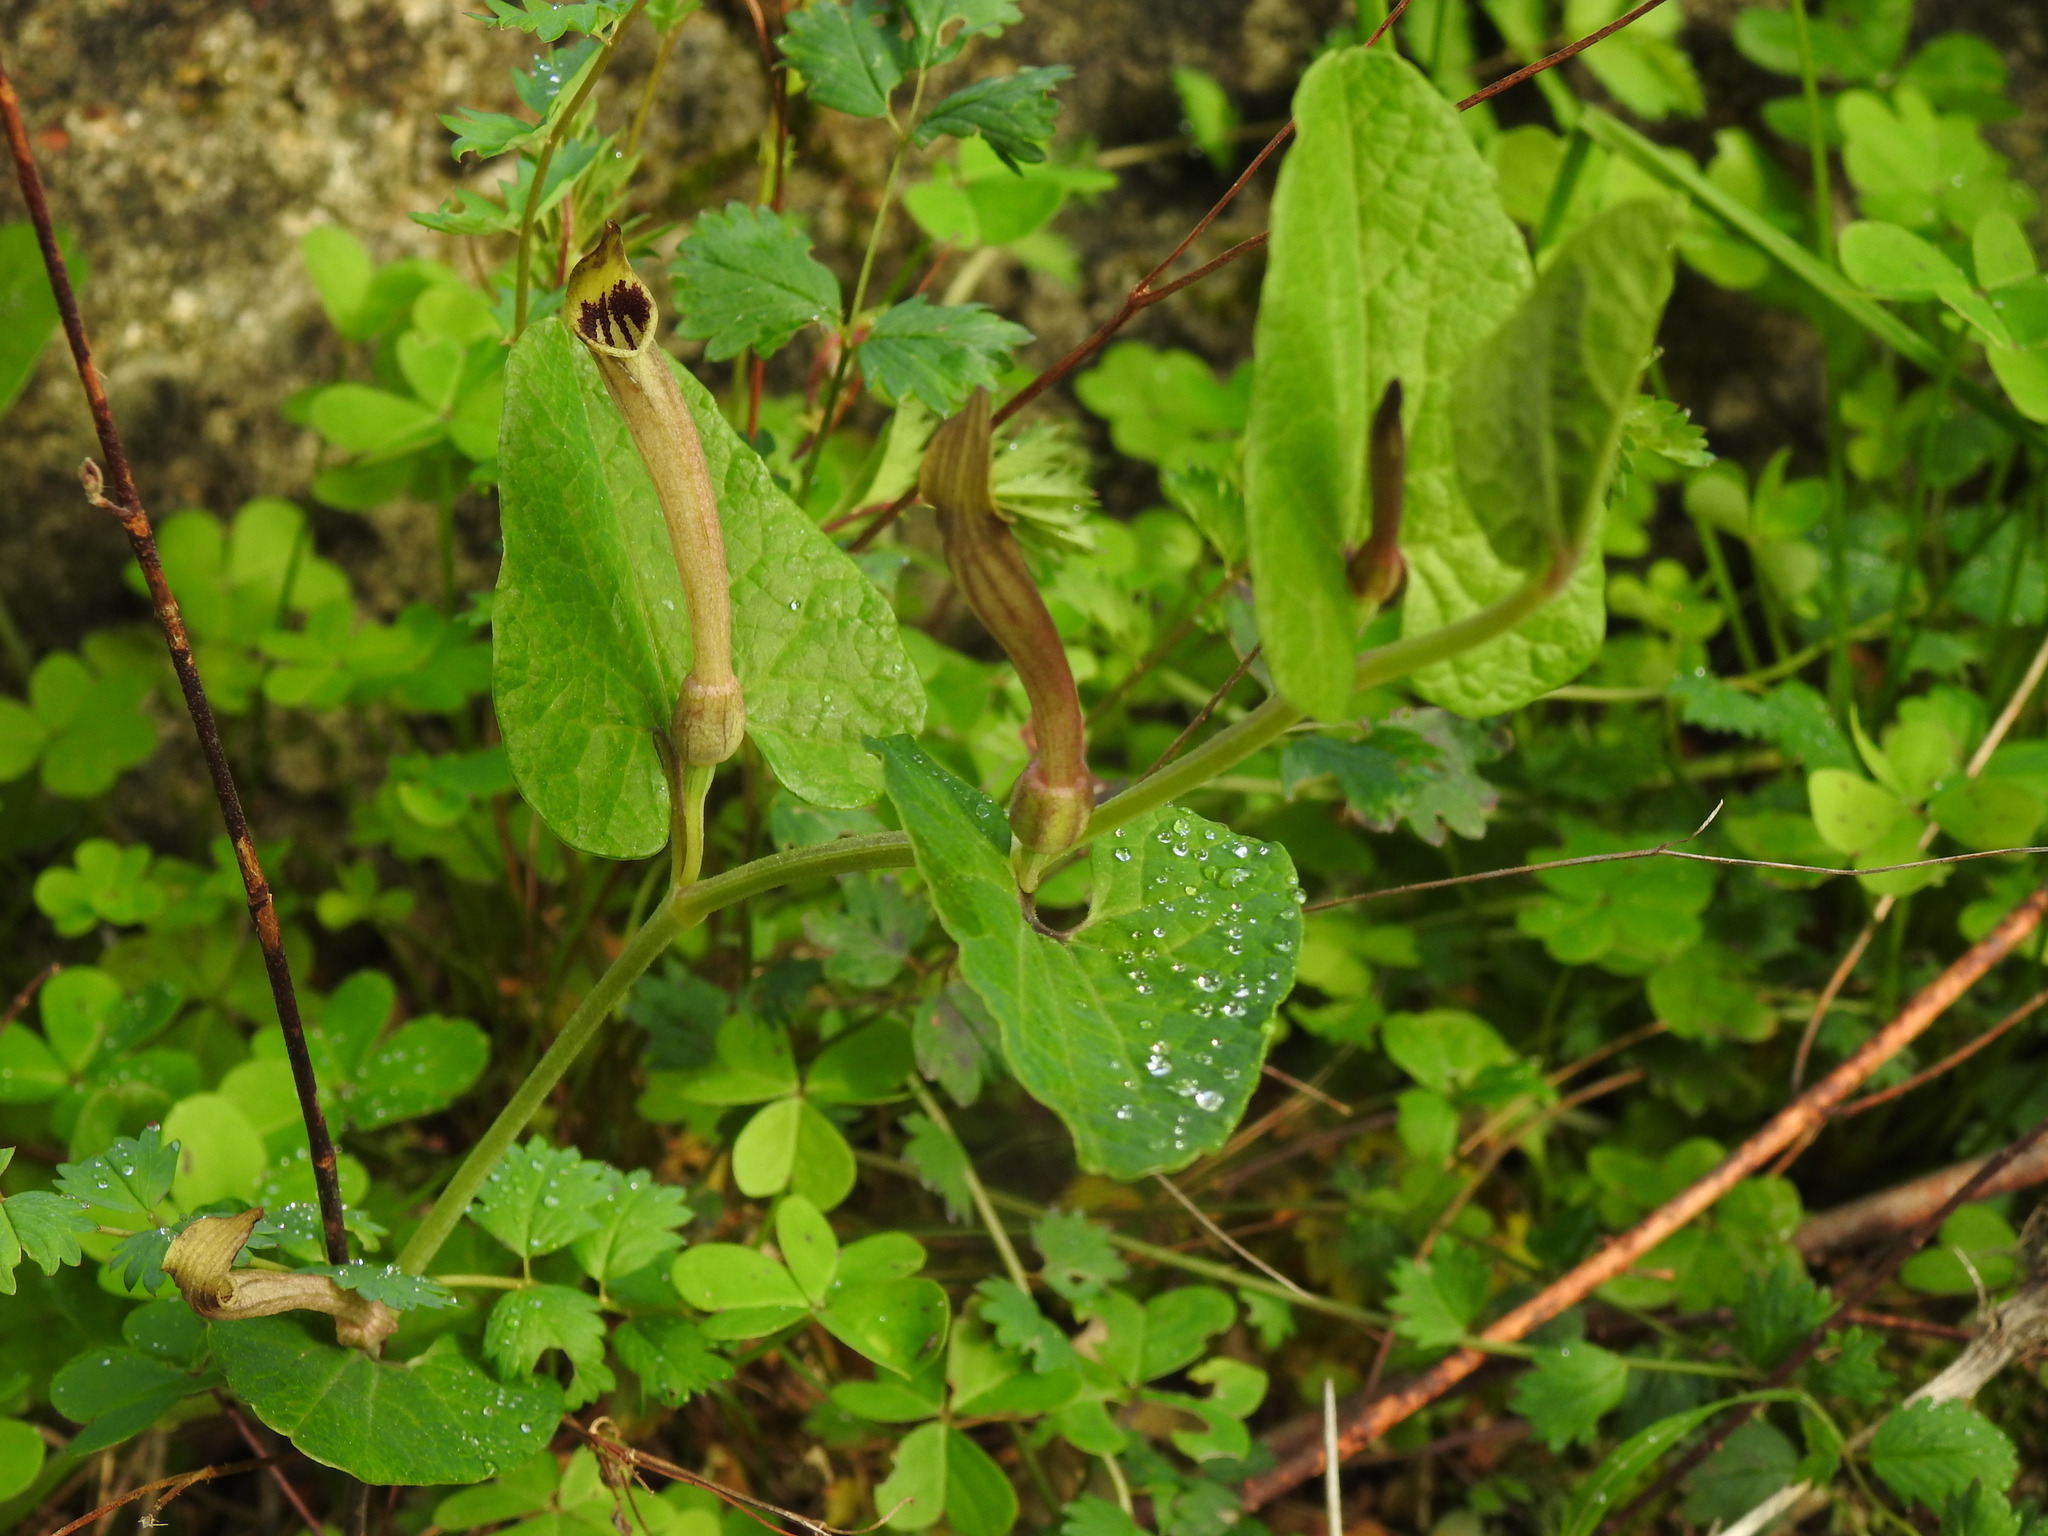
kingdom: Plantae
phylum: Tracheophyta
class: Magnoliopsida
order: Piperales
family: Aristolochiaceae
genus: Aristolochia
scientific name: Aristolochia paucinervis
